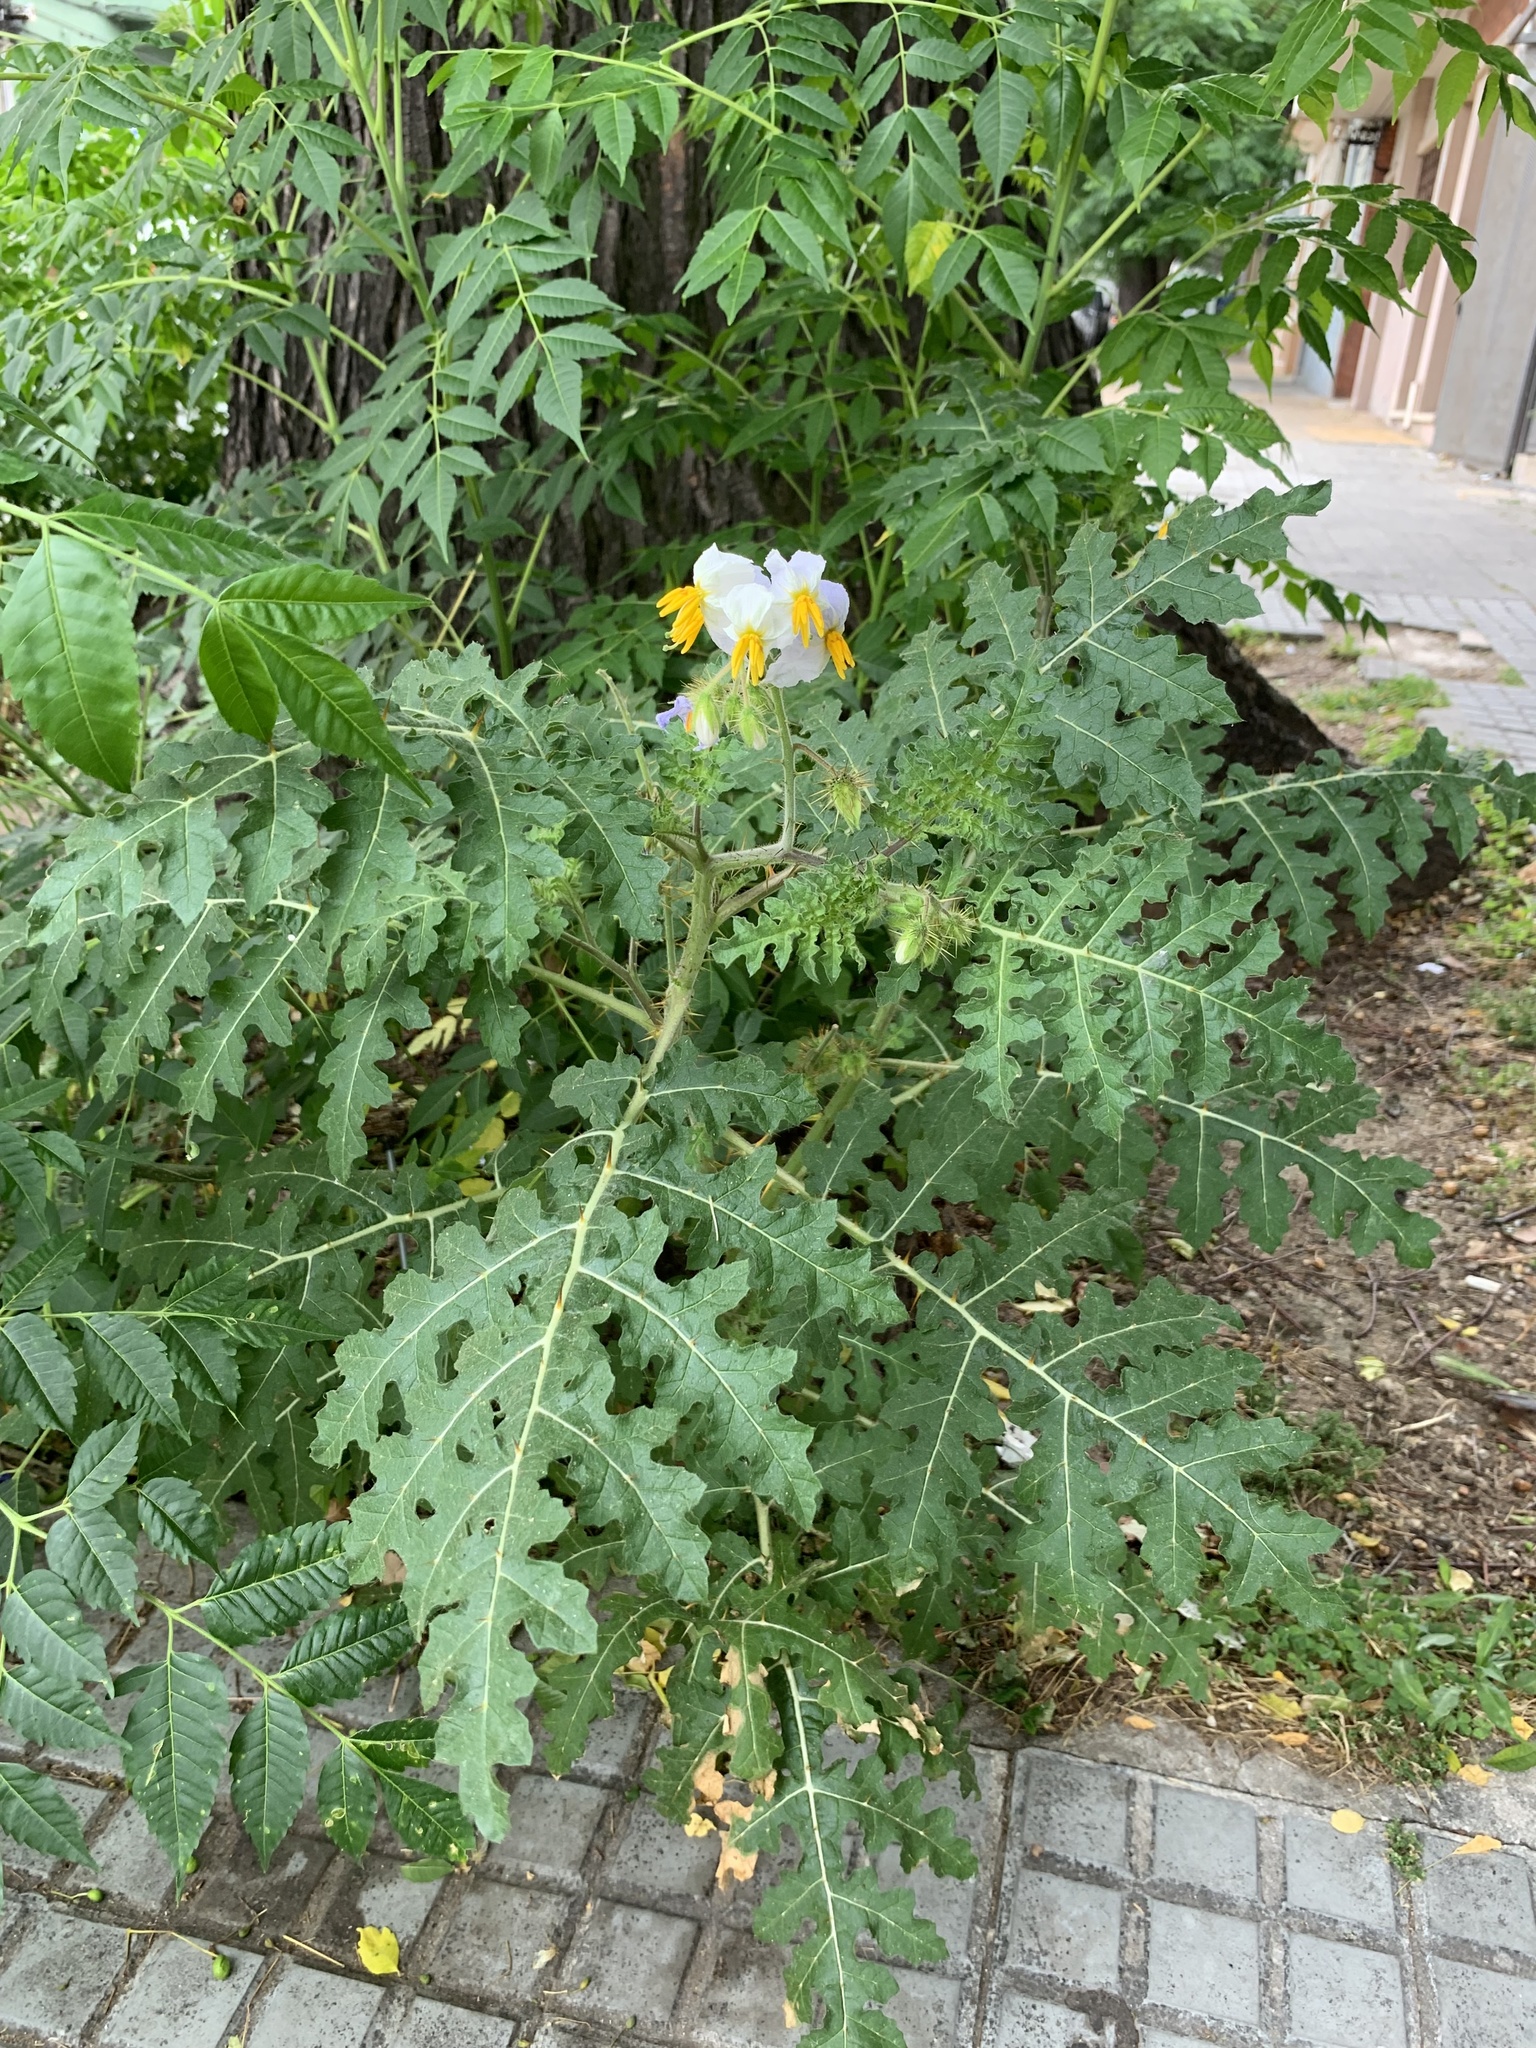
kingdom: Plantae
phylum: Tracheophyta
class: Magnoliopsida
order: Solanales
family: Solanaceae
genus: Solanum
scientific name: Solanum sisymbriifolium
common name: Red buffalo-bur
